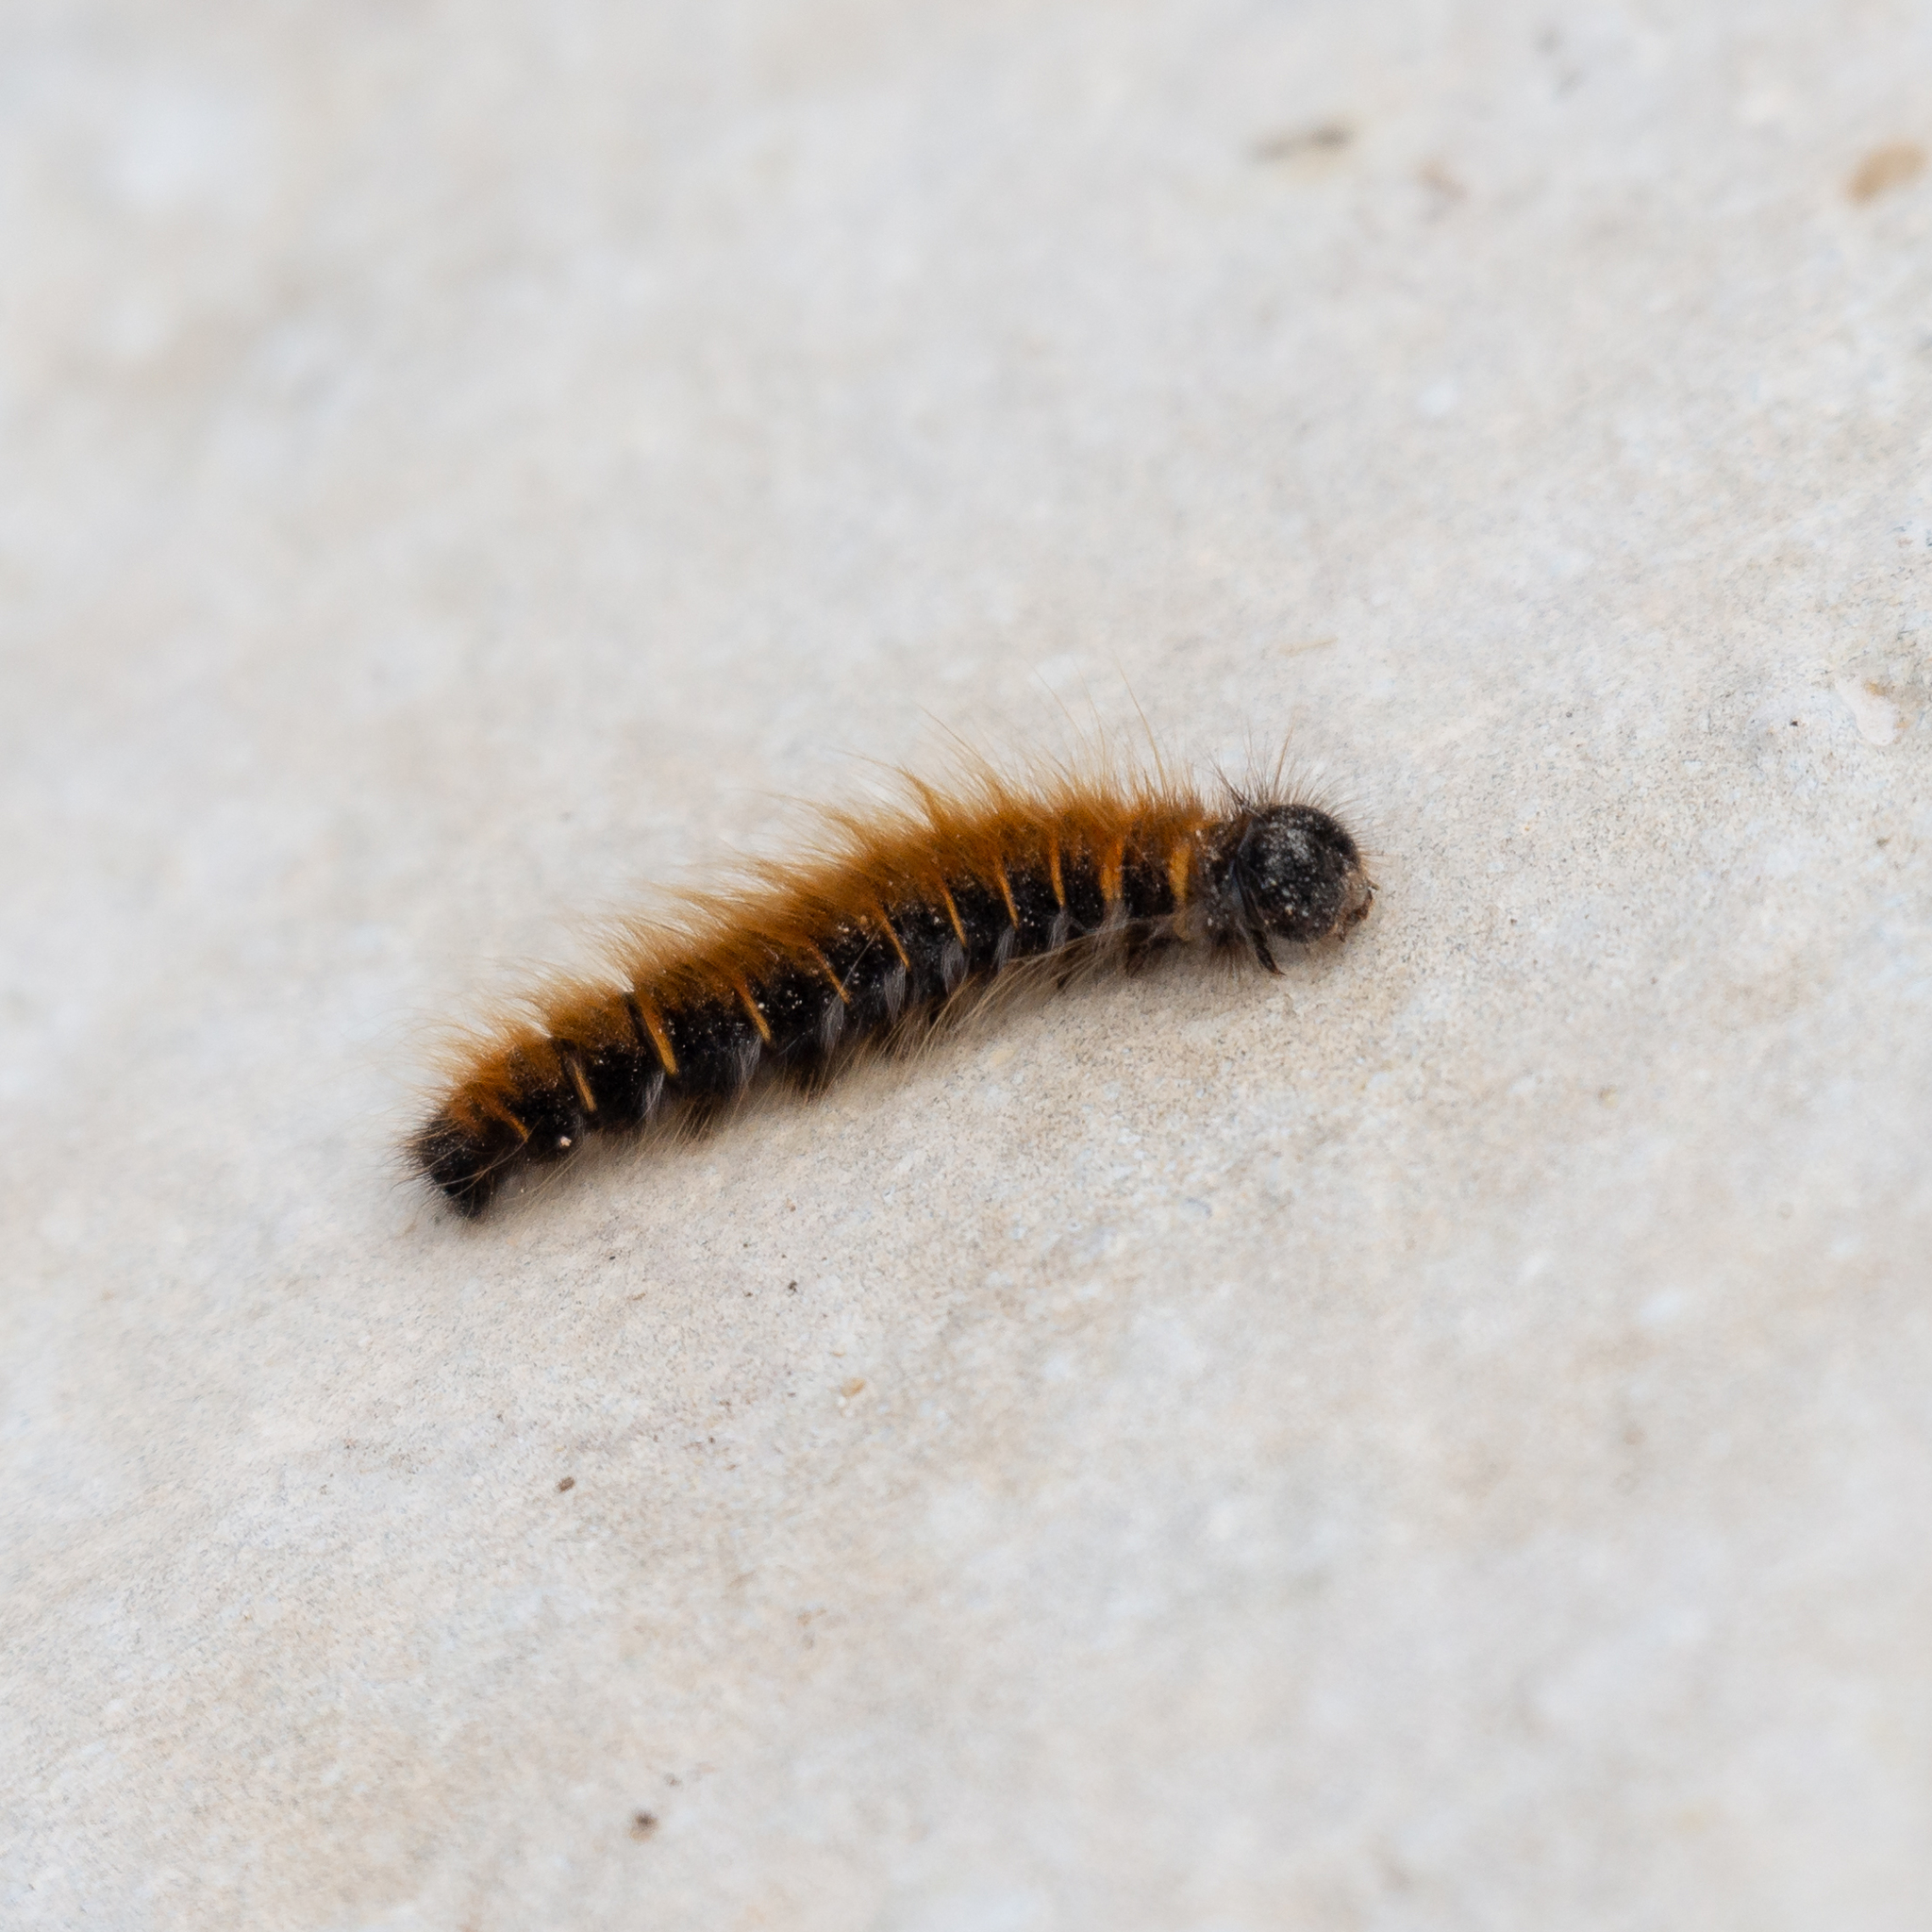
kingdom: Animalia
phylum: Arthropoda
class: Insecta
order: Lepidoptera
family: Lasiocampidae
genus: Macrothylacia
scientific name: Macrothylacia rubi
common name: Fox moth
